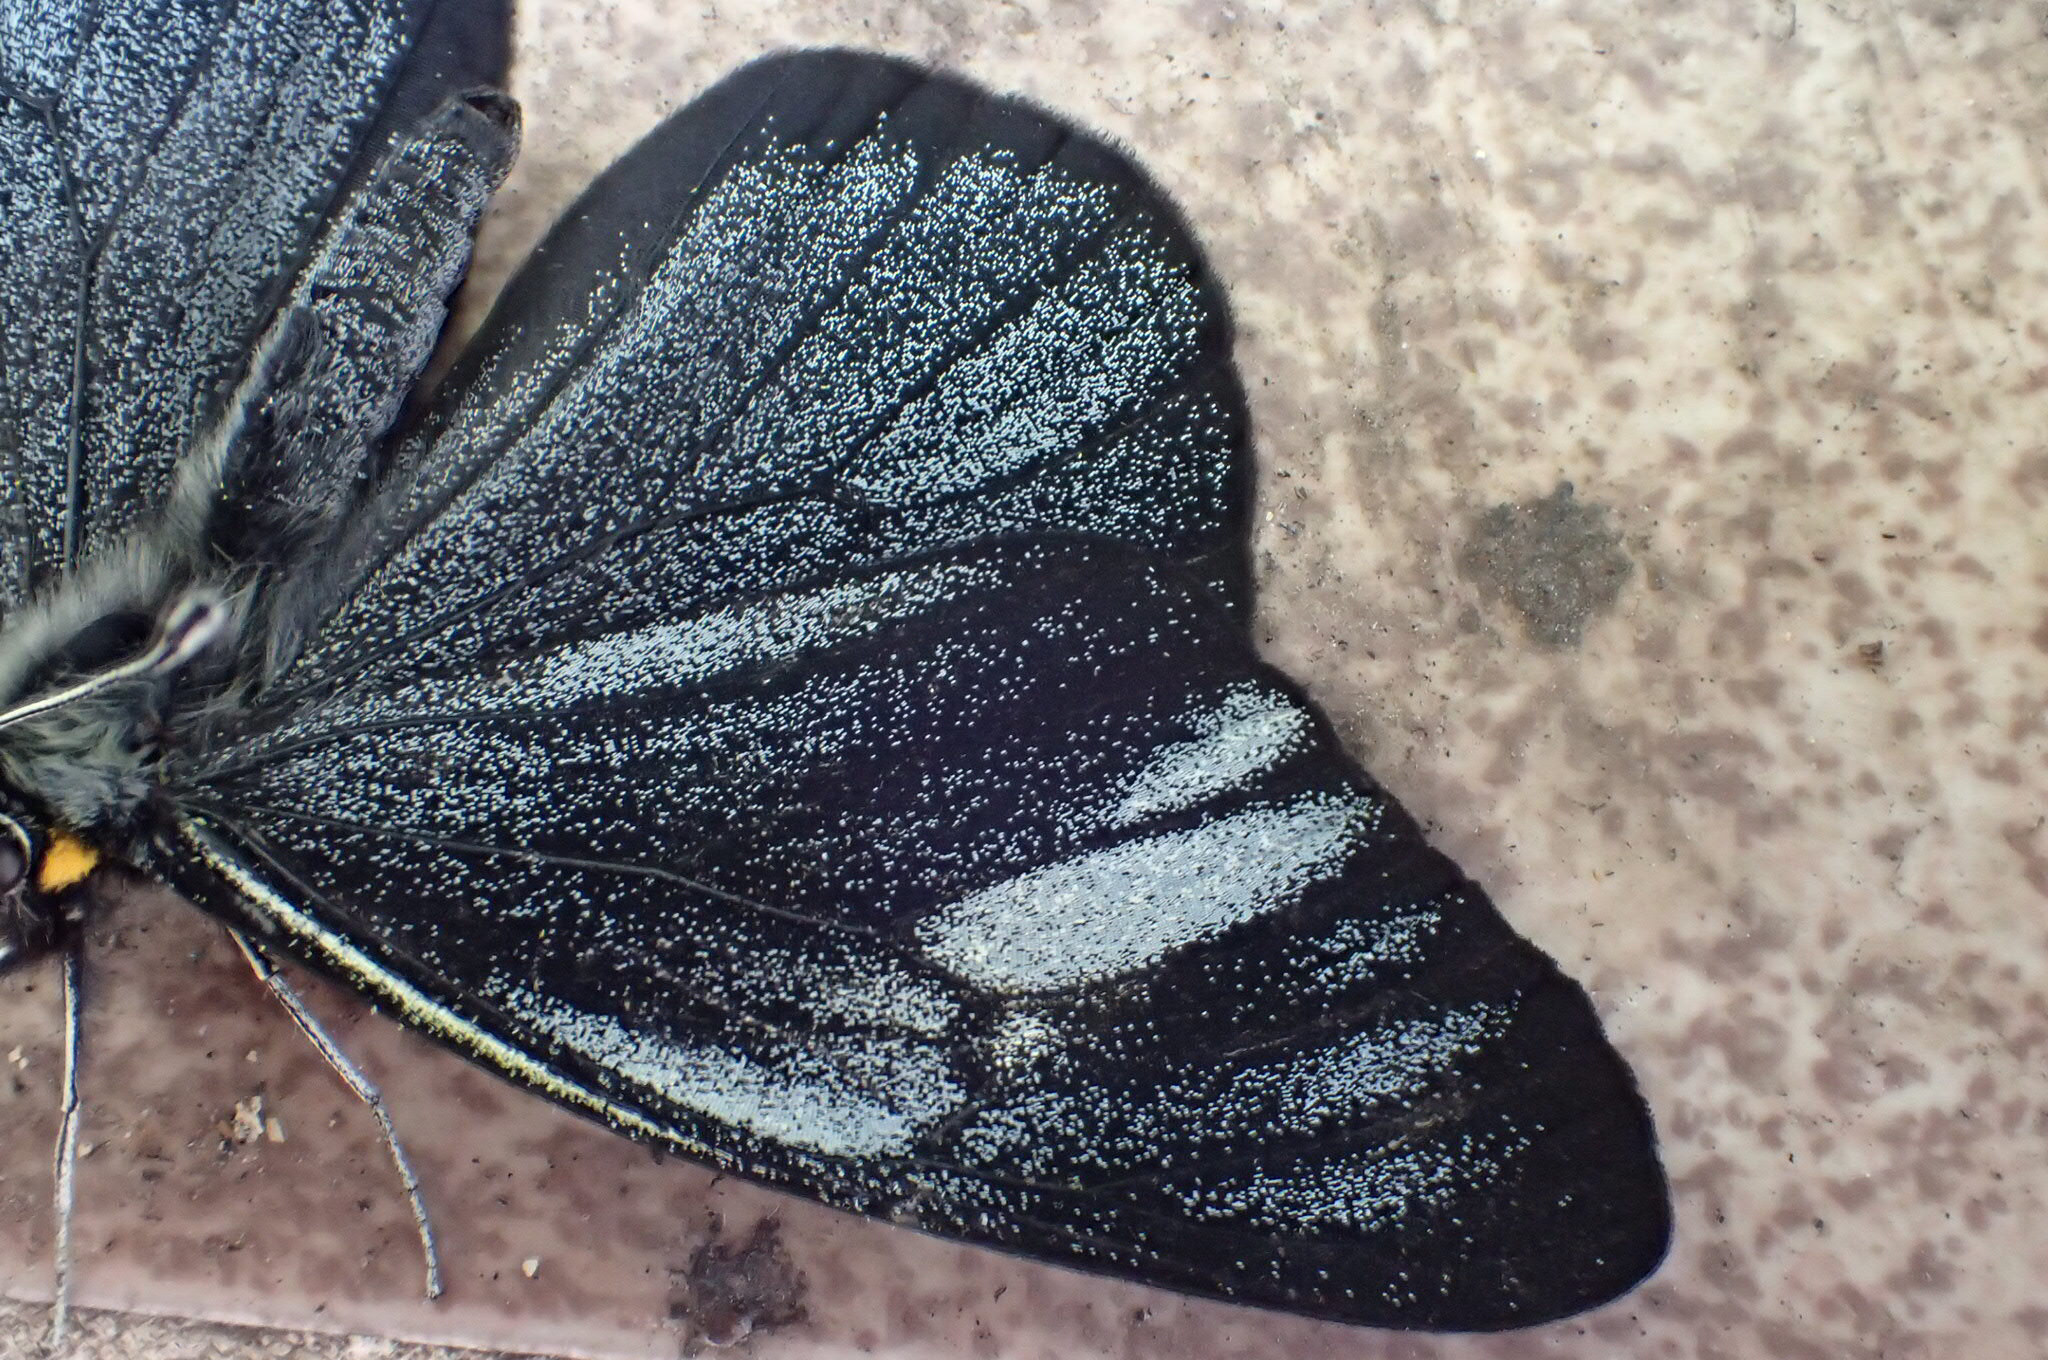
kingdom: Animalia
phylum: Arthropoda
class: Insecta
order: Lepidoptera
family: Pieridae
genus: Pereute
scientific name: Pereute charops
